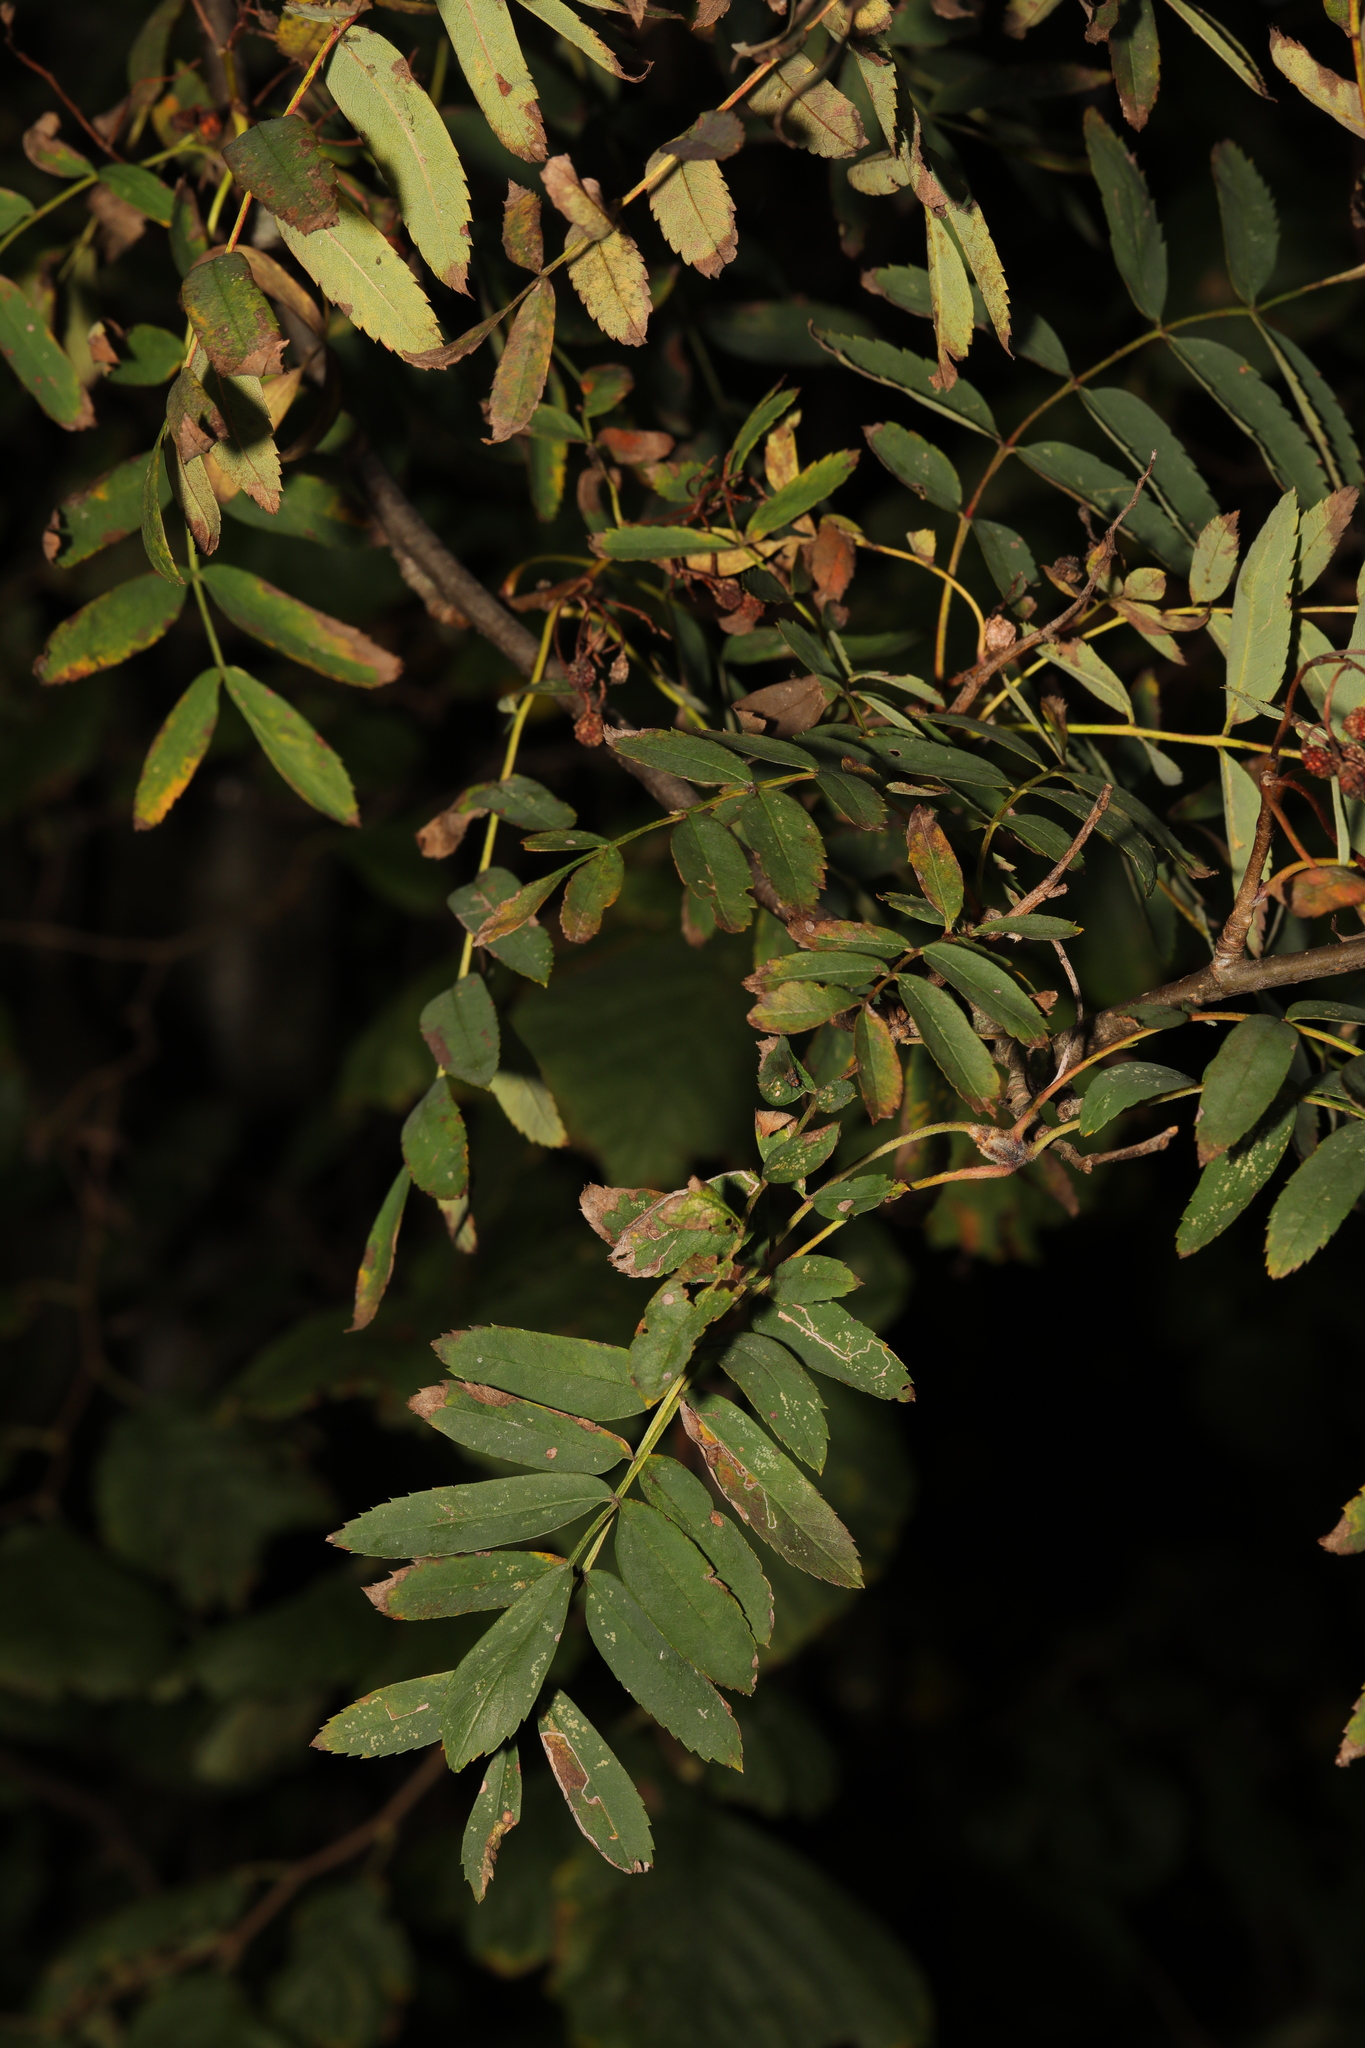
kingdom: Plantae
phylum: Tracheophyta
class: Magnoliopsida
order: Rosales
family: Rosaceae
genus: Sorbus
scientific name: Sorbus aucuparia
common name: Rowan
